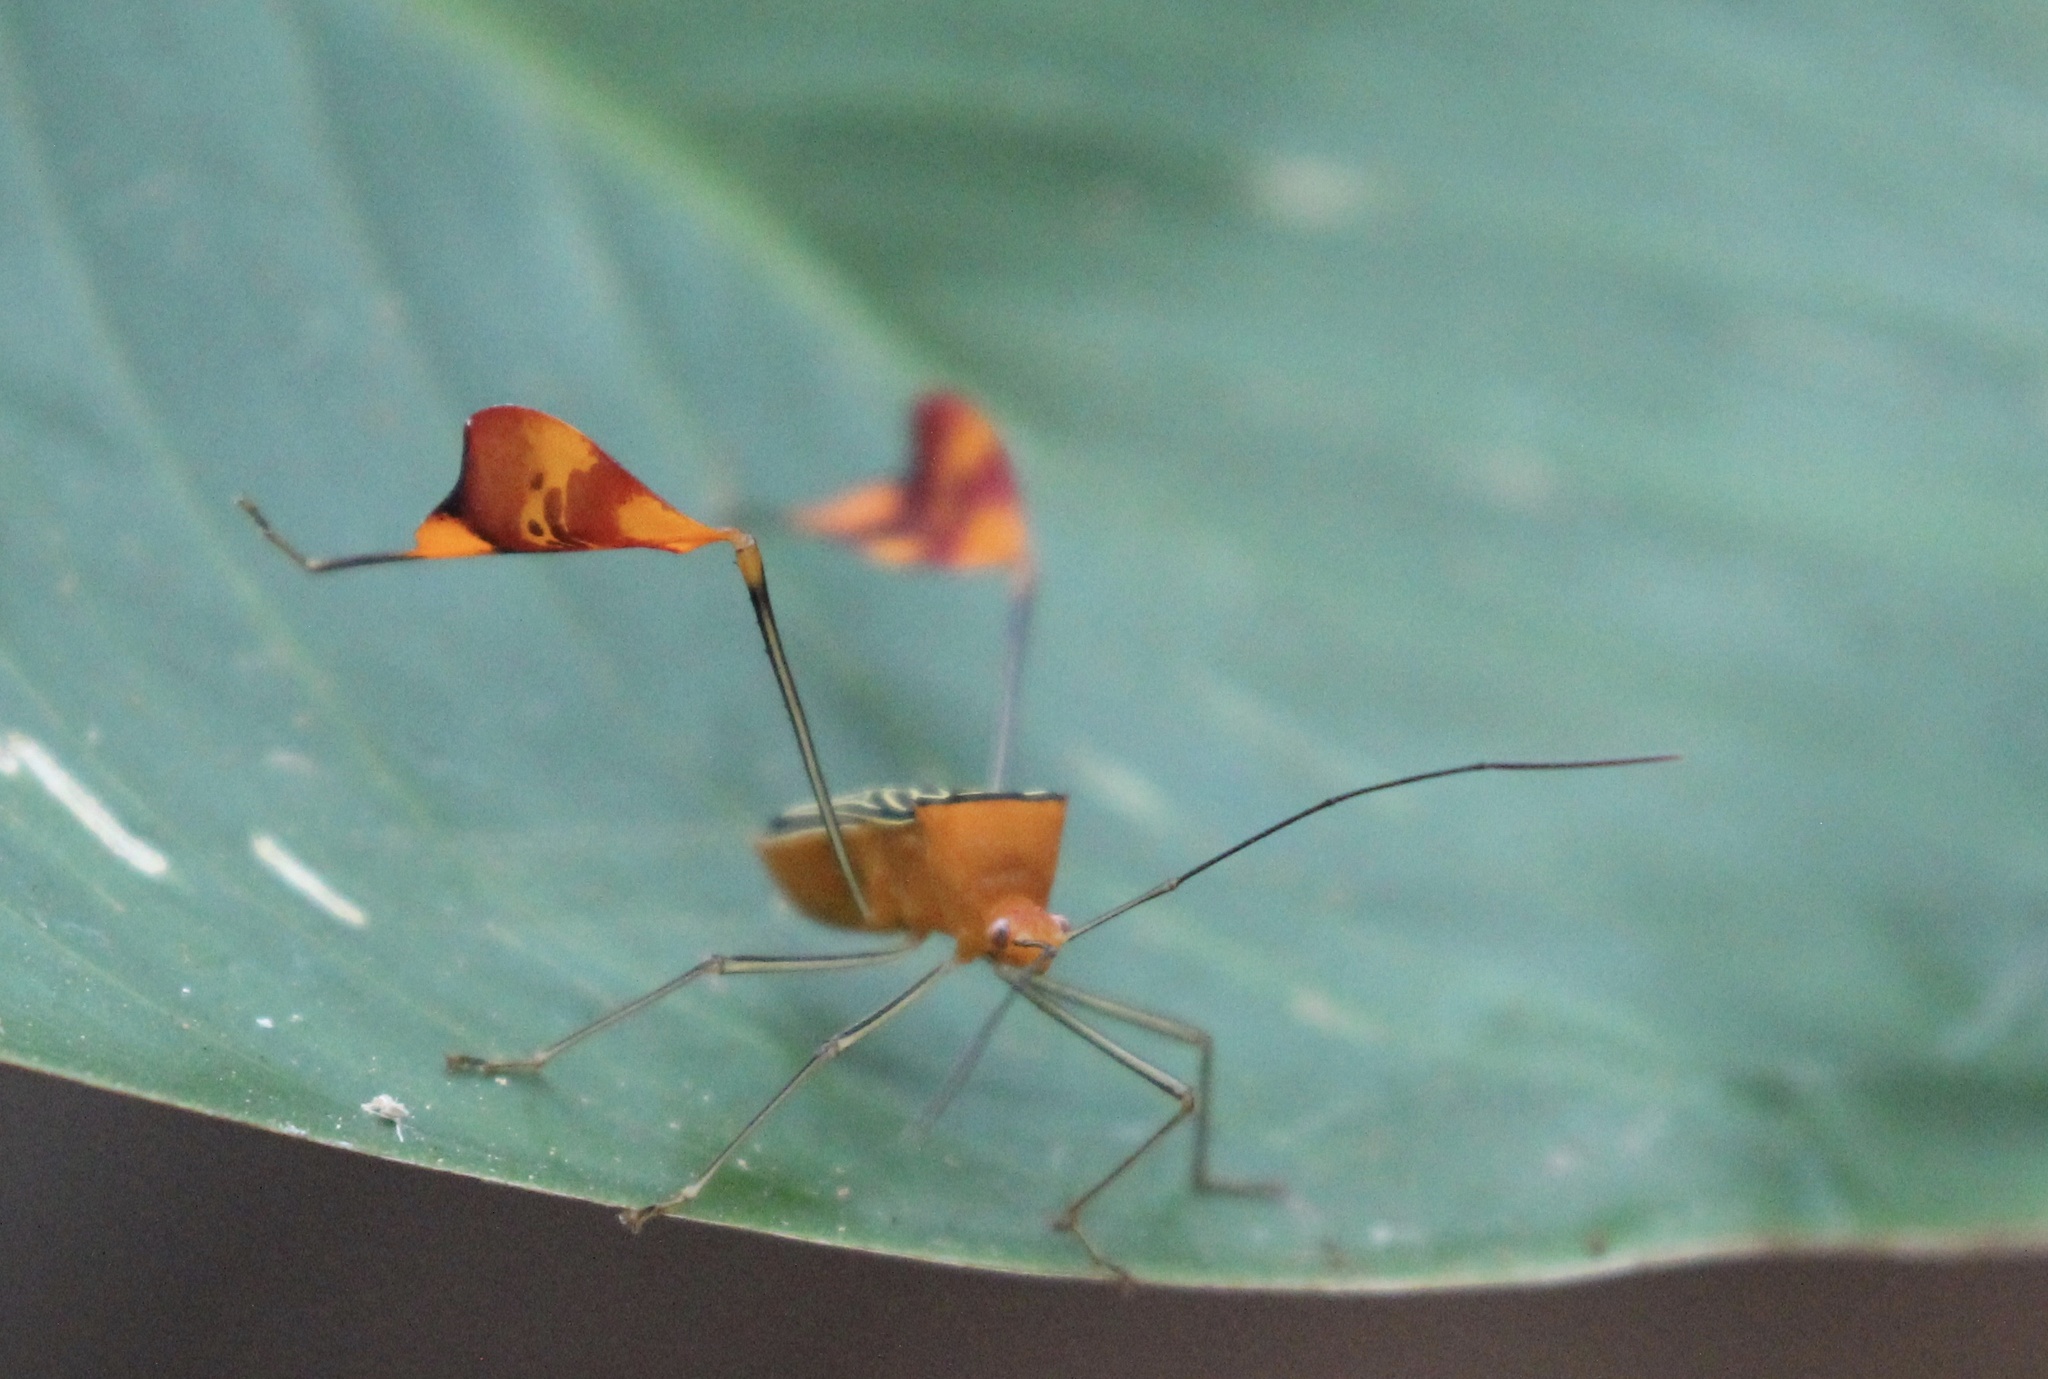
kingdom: Animalia
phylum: Arthropoda
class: Insecta
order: Hemiptera
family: Coreidae
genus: Bitta
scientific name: Bitta
